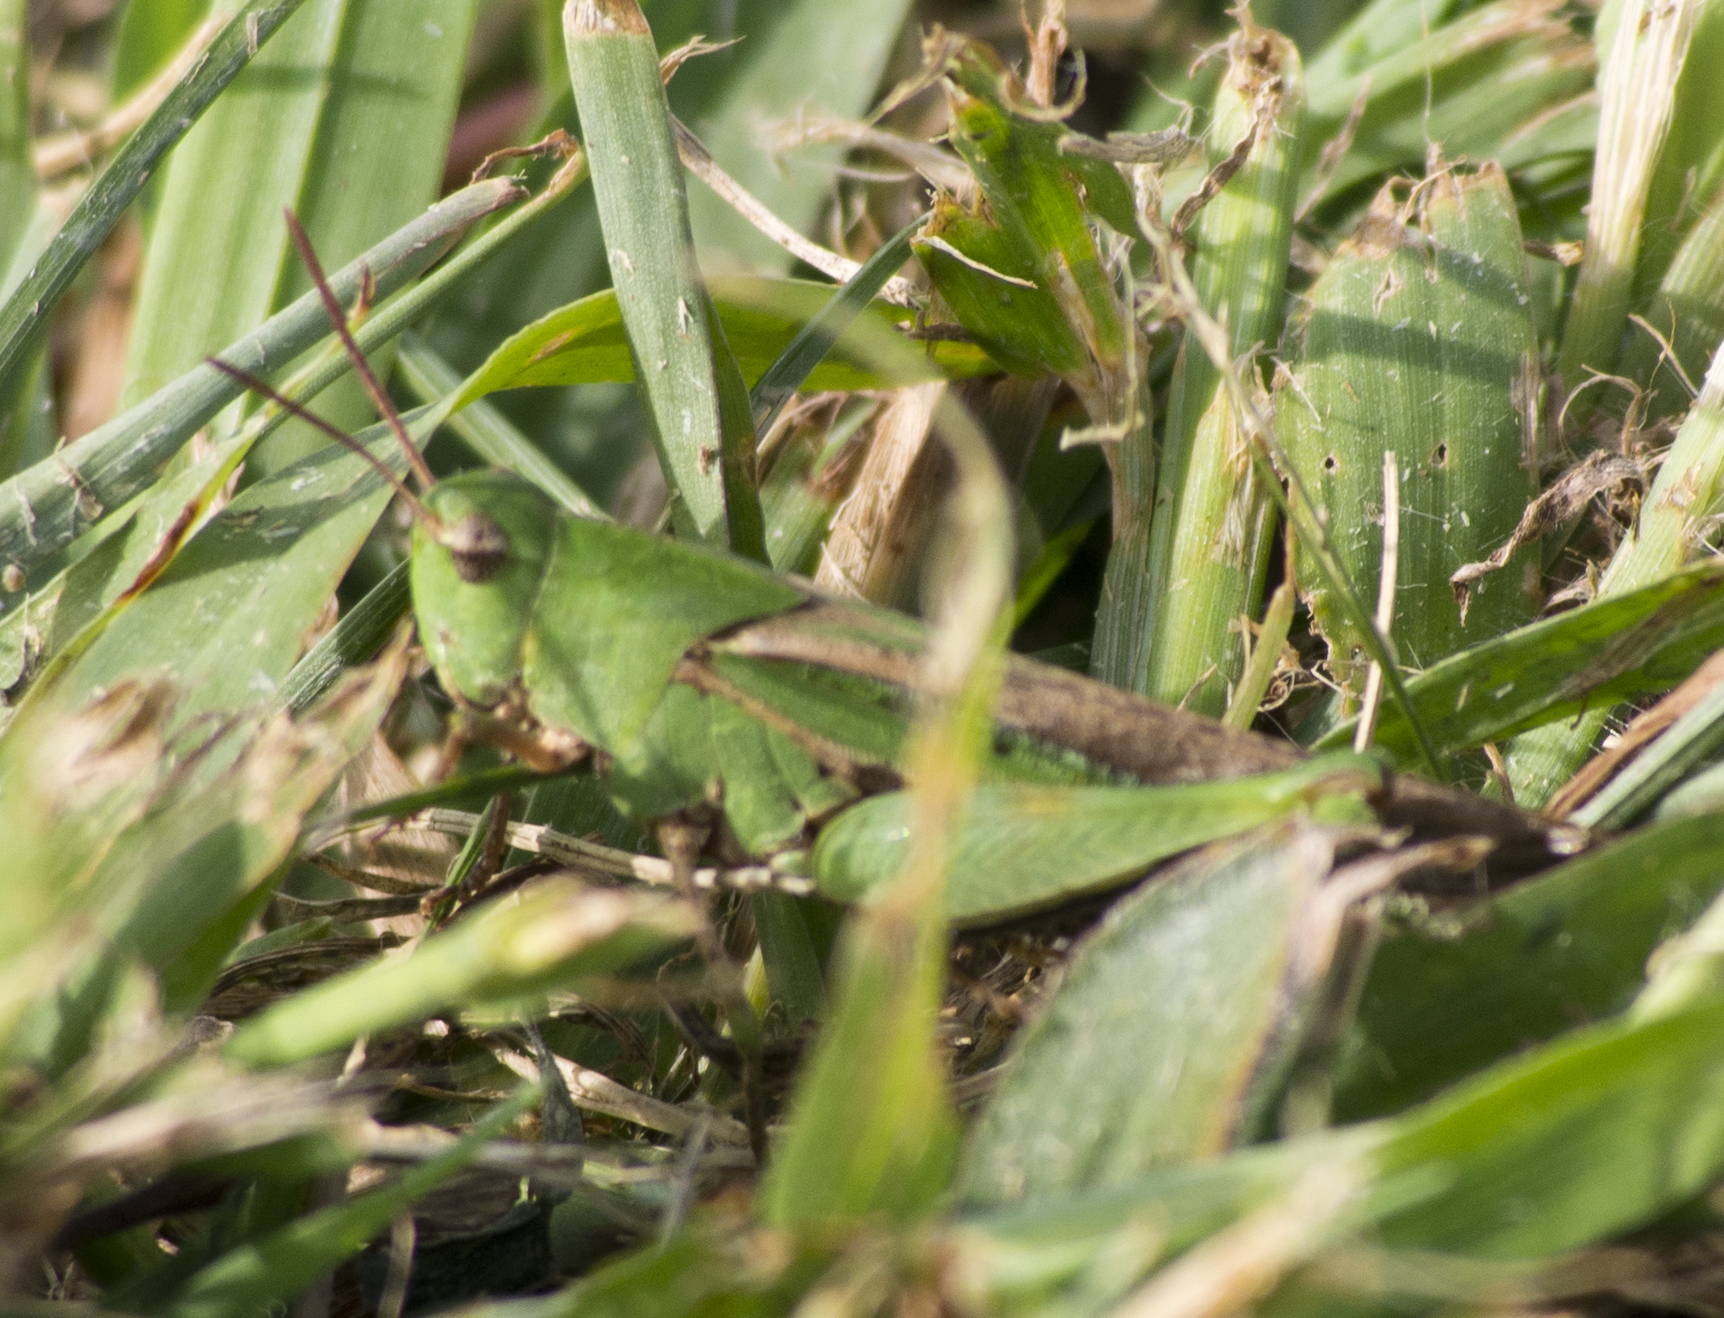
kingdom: Animalia
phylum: Arthropoda
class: Insecta
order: Orthoptera
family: Acrididae
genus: Chortophaga
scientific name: Chortophaga viridifasciata
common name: Green-striped grasshopper
